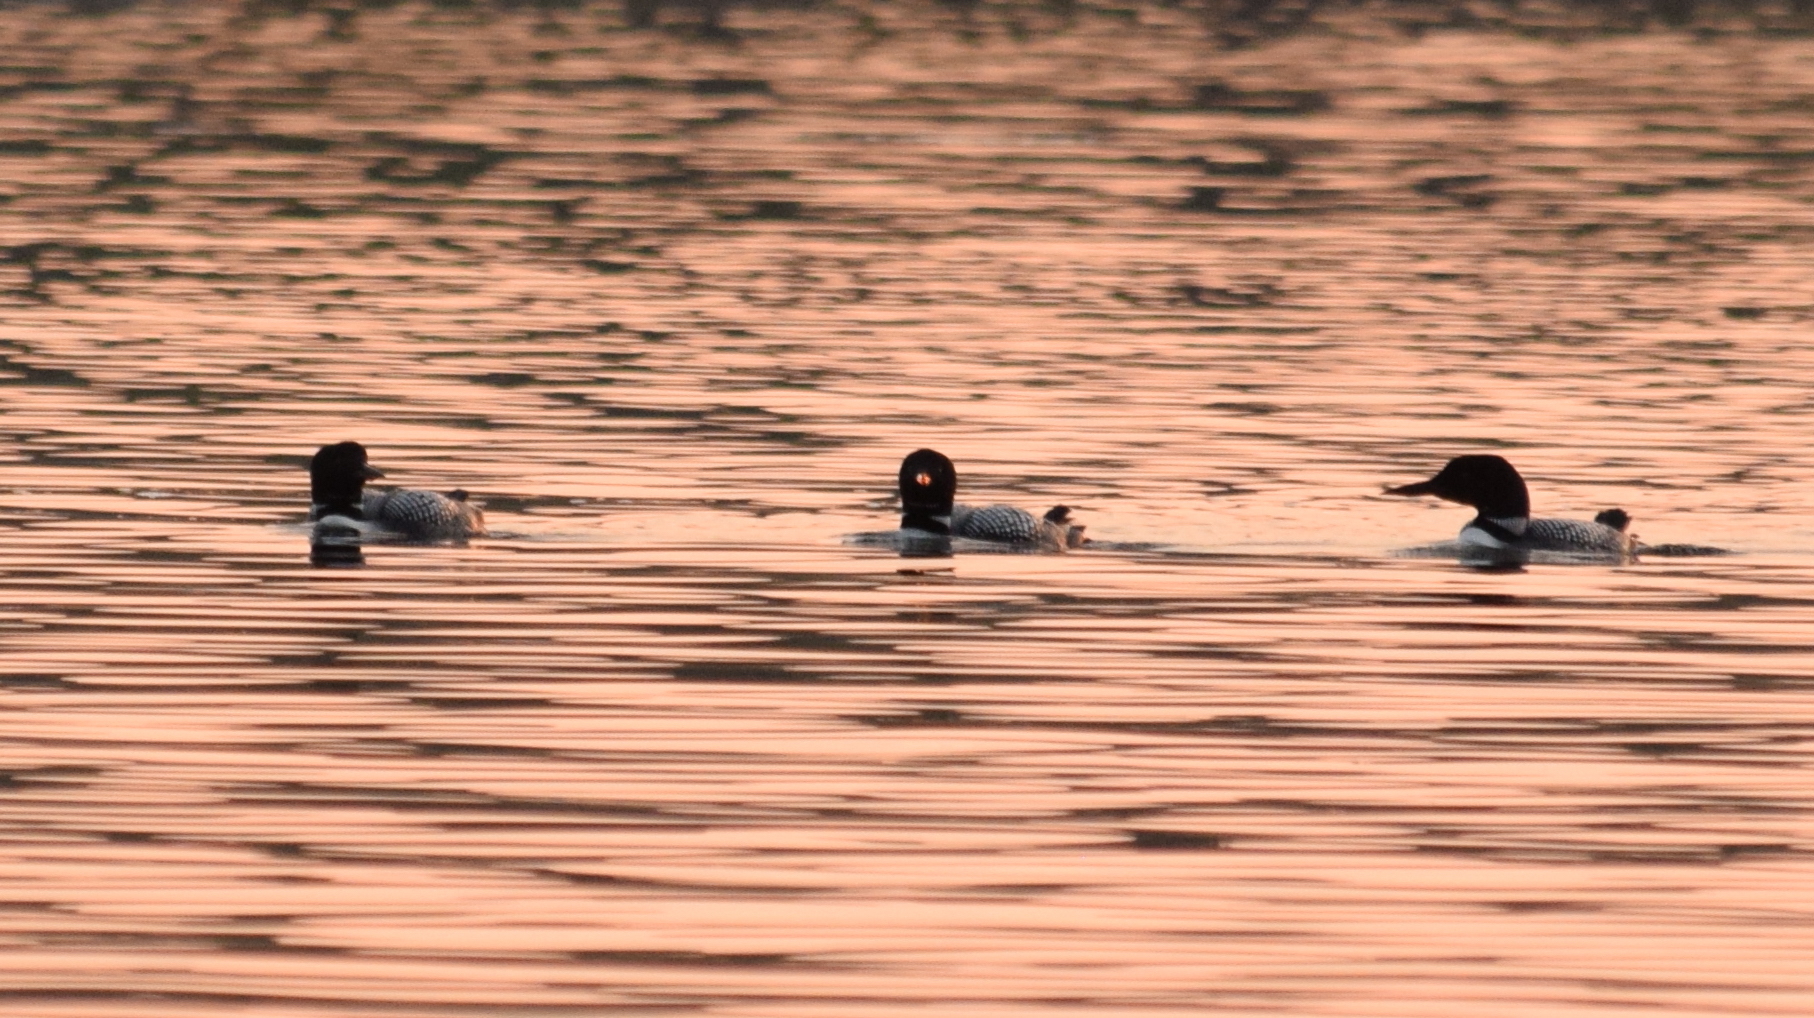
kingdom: Animalia
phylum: Chordata
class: Aves
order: Gaviiformes
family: Gaviidae
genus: Gavia
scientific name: Gavia immer
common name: Common loon
